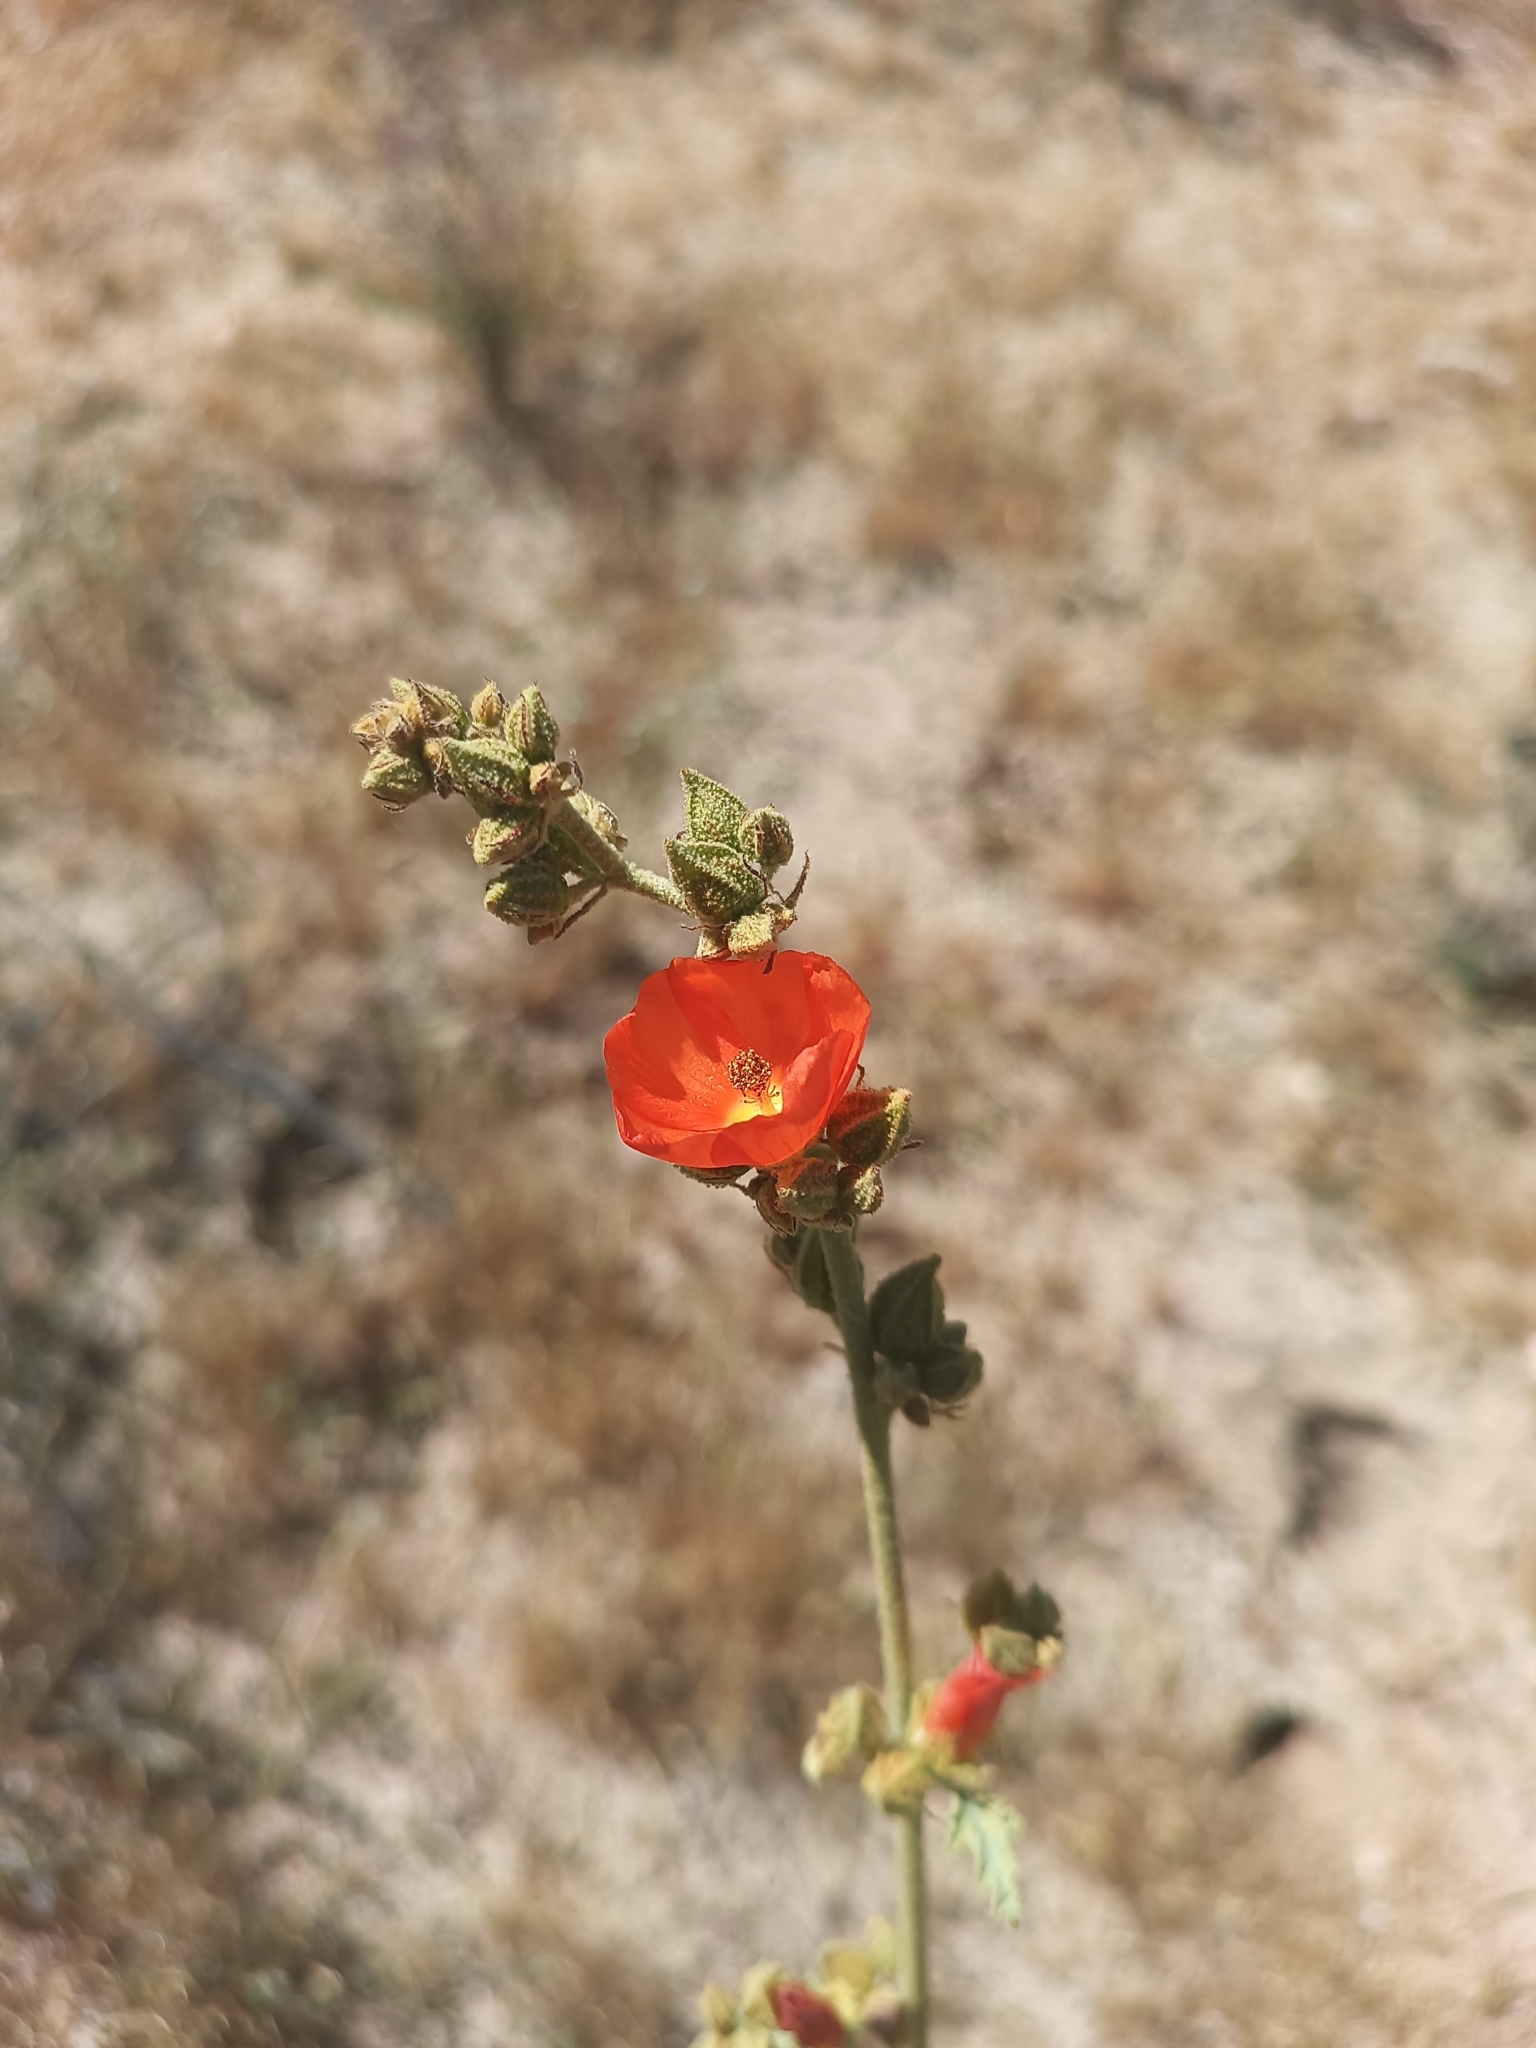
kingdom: Plantae
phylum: Tracheophyta
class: Magnoliopsida
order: Malvales
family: Malvaceae
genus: Sphaeralcea
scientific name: Sphaeralcea ambigua
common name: Apricot globe-mallow
